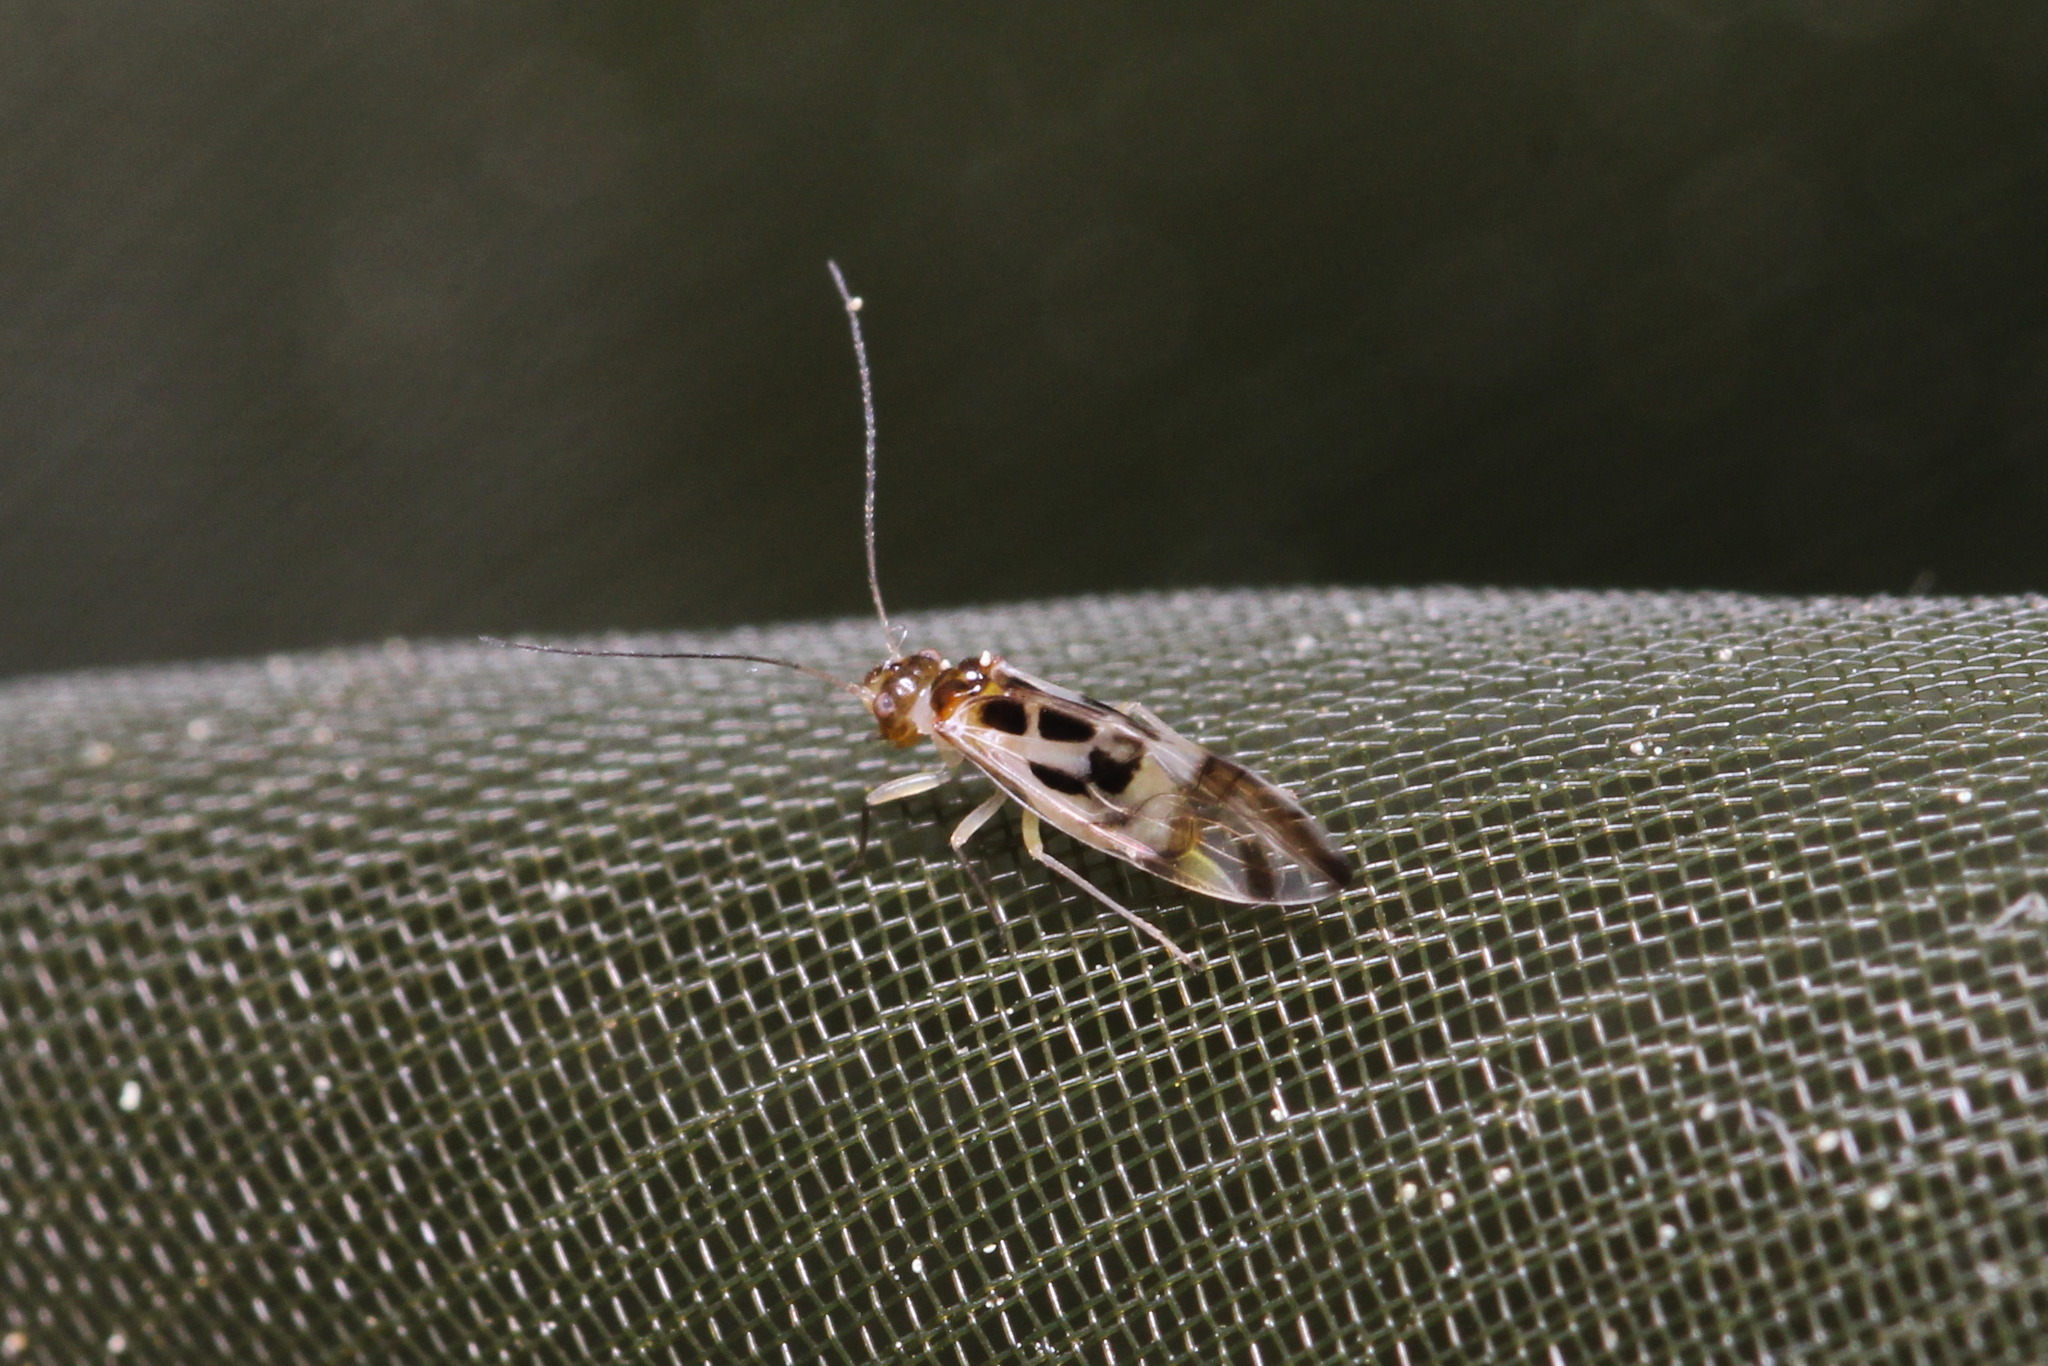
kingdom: Animalia
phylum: Arthropoda
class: Insecta
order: Psocodea
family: Stenopsocidae
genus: Graphopsocus
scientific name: Graphopsocus cruciatus
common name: Lizard bark louse
